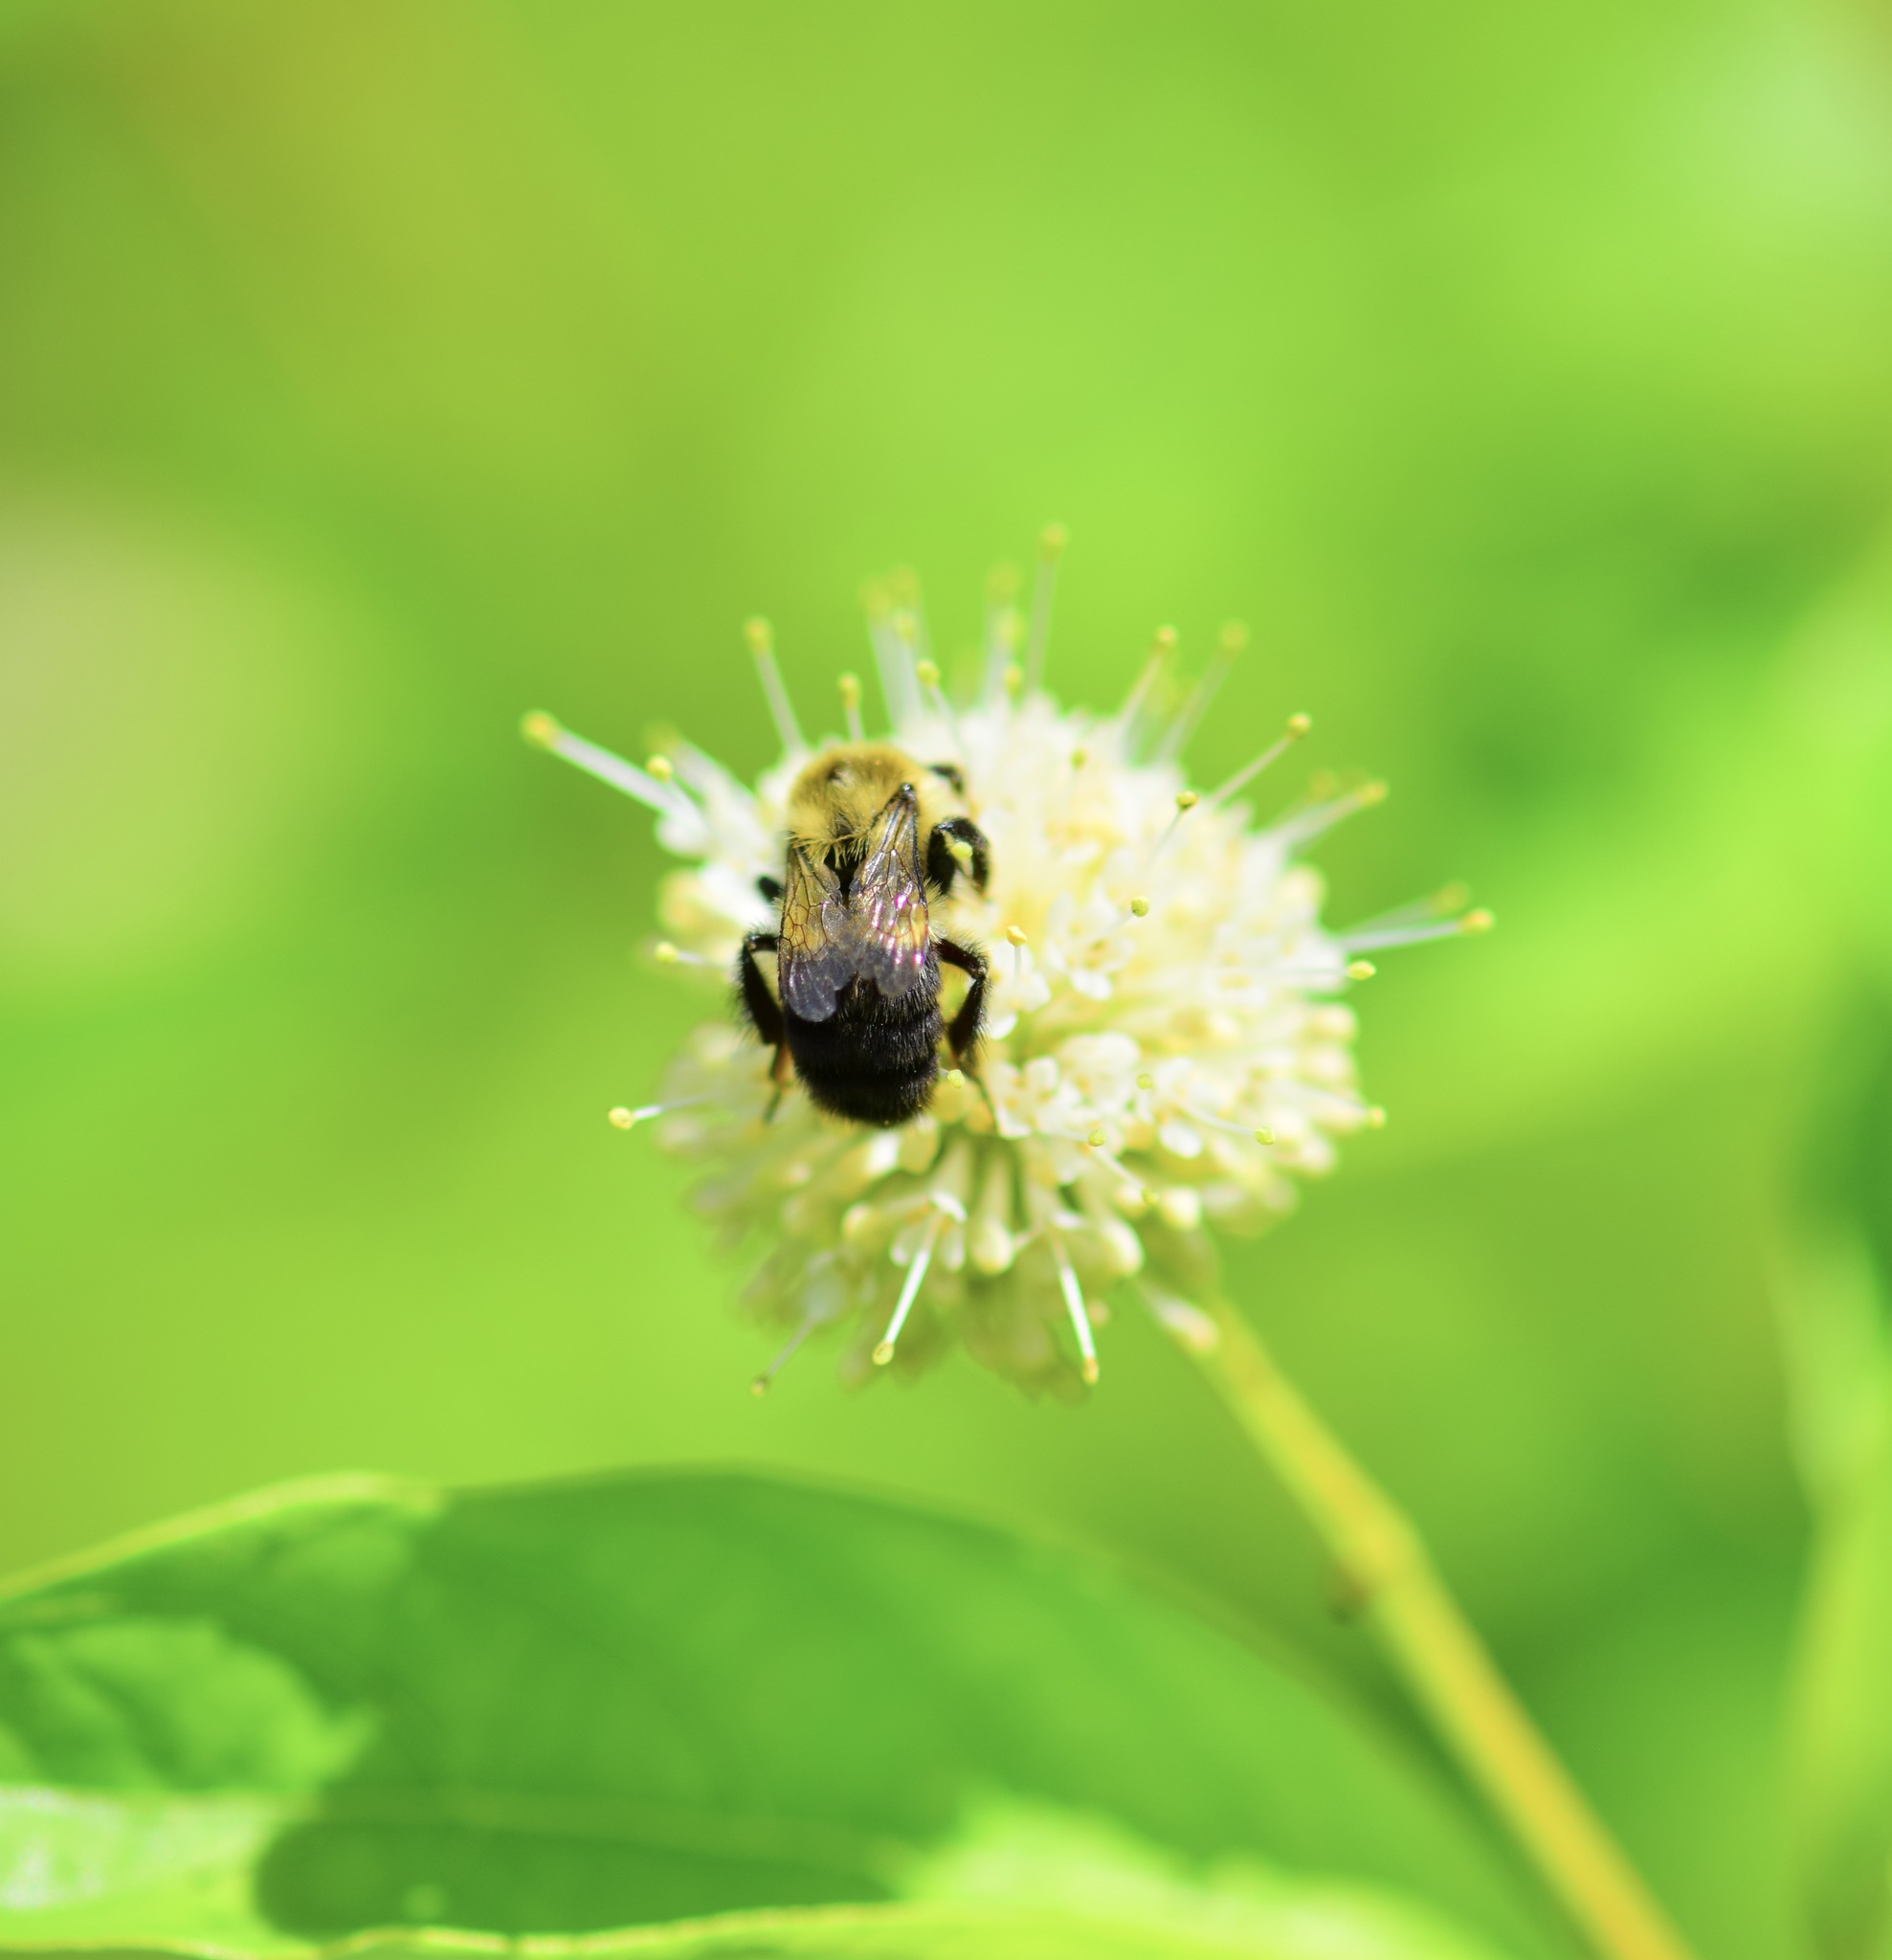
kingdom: Animalia
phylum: Arthropoda
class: Insecta
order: Hymenoptera
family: Apidae
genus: Bombus
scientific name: Bombus impatiens
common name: Common eastern bumble bee
